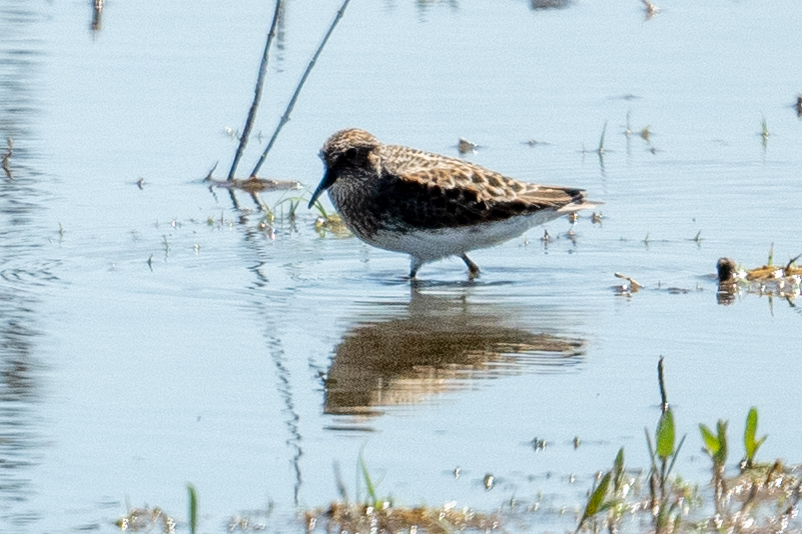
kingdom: Animalia
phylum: Chordata
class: Aves
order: Charadriiformes
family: Scolopacidae
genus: Calidris
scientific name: Calidris minutilla
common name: Least sandpiper
